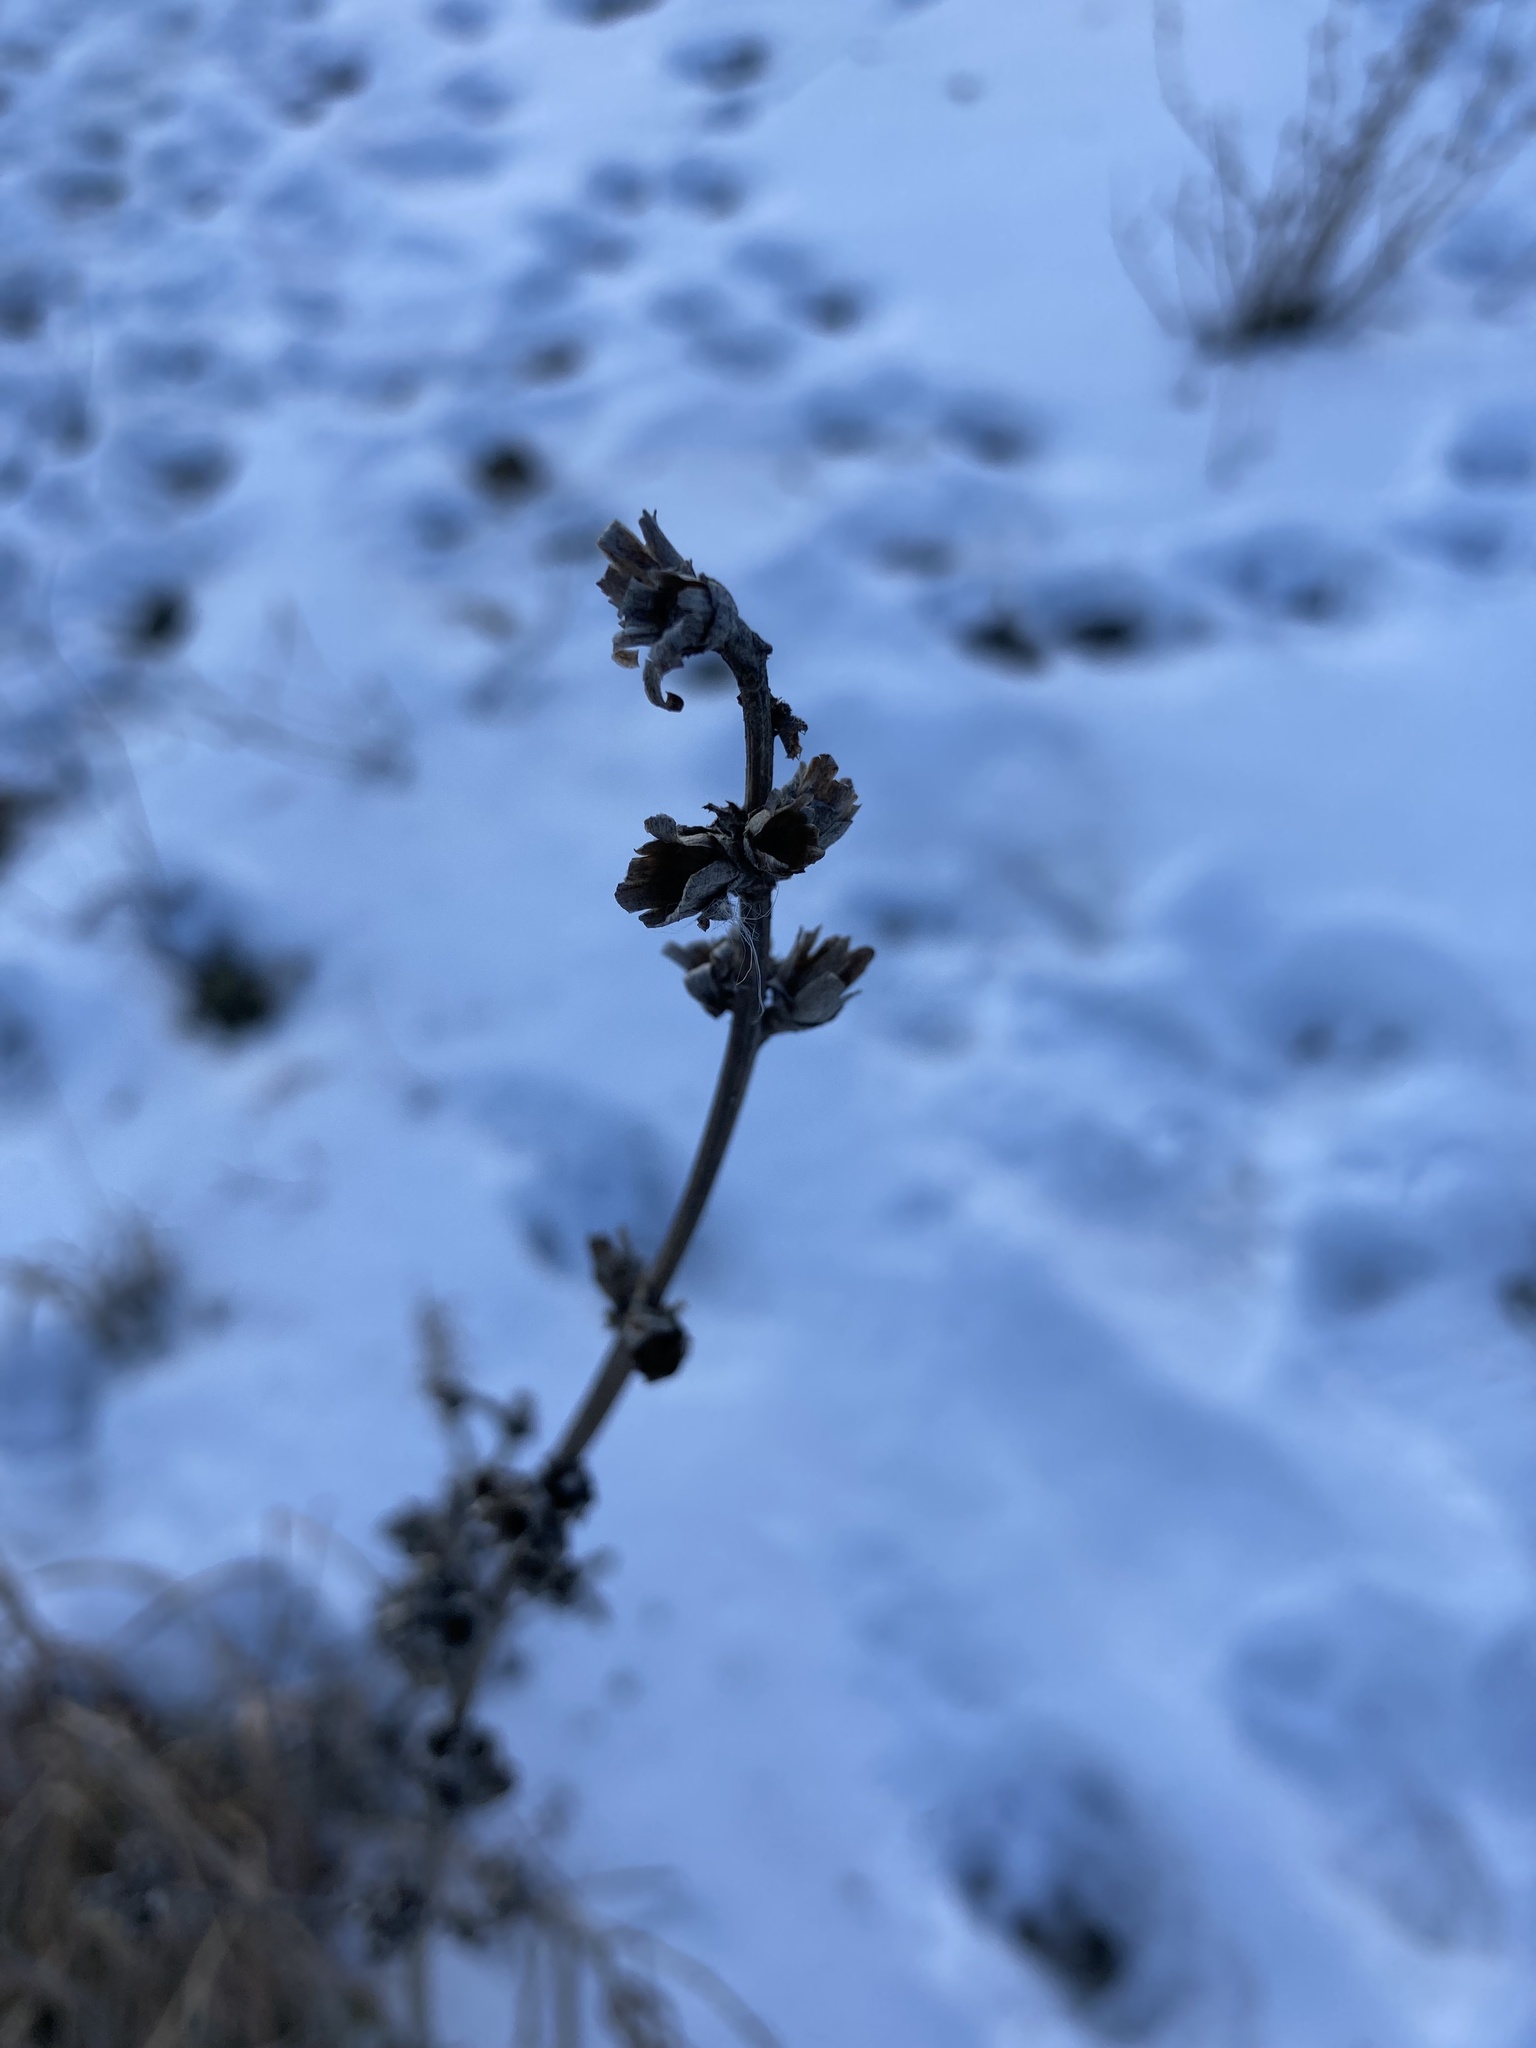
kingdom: Plantae
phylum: Tracheophyta
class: Magnoliopsida
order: Asterales
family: Asteraceae
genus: Cichorium
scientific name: Cichorium intybus
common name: Chicory
